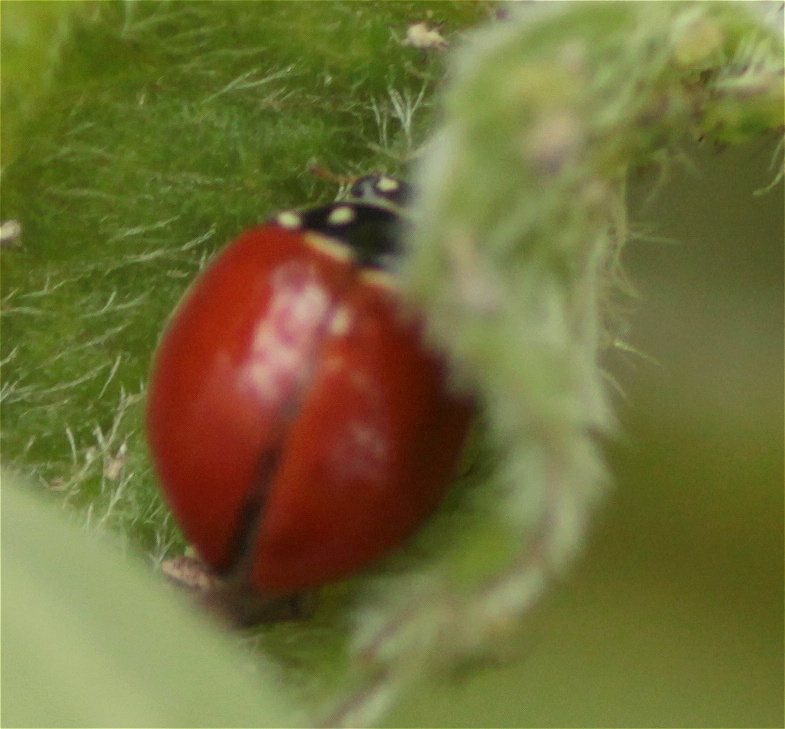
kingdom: Animalia
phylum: Arthropoda
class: Insecta
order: Coleoptera
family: Coccinellidae
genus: Cycloneda
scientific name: Cycloneda sanguinea
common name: Ladybird beetle
